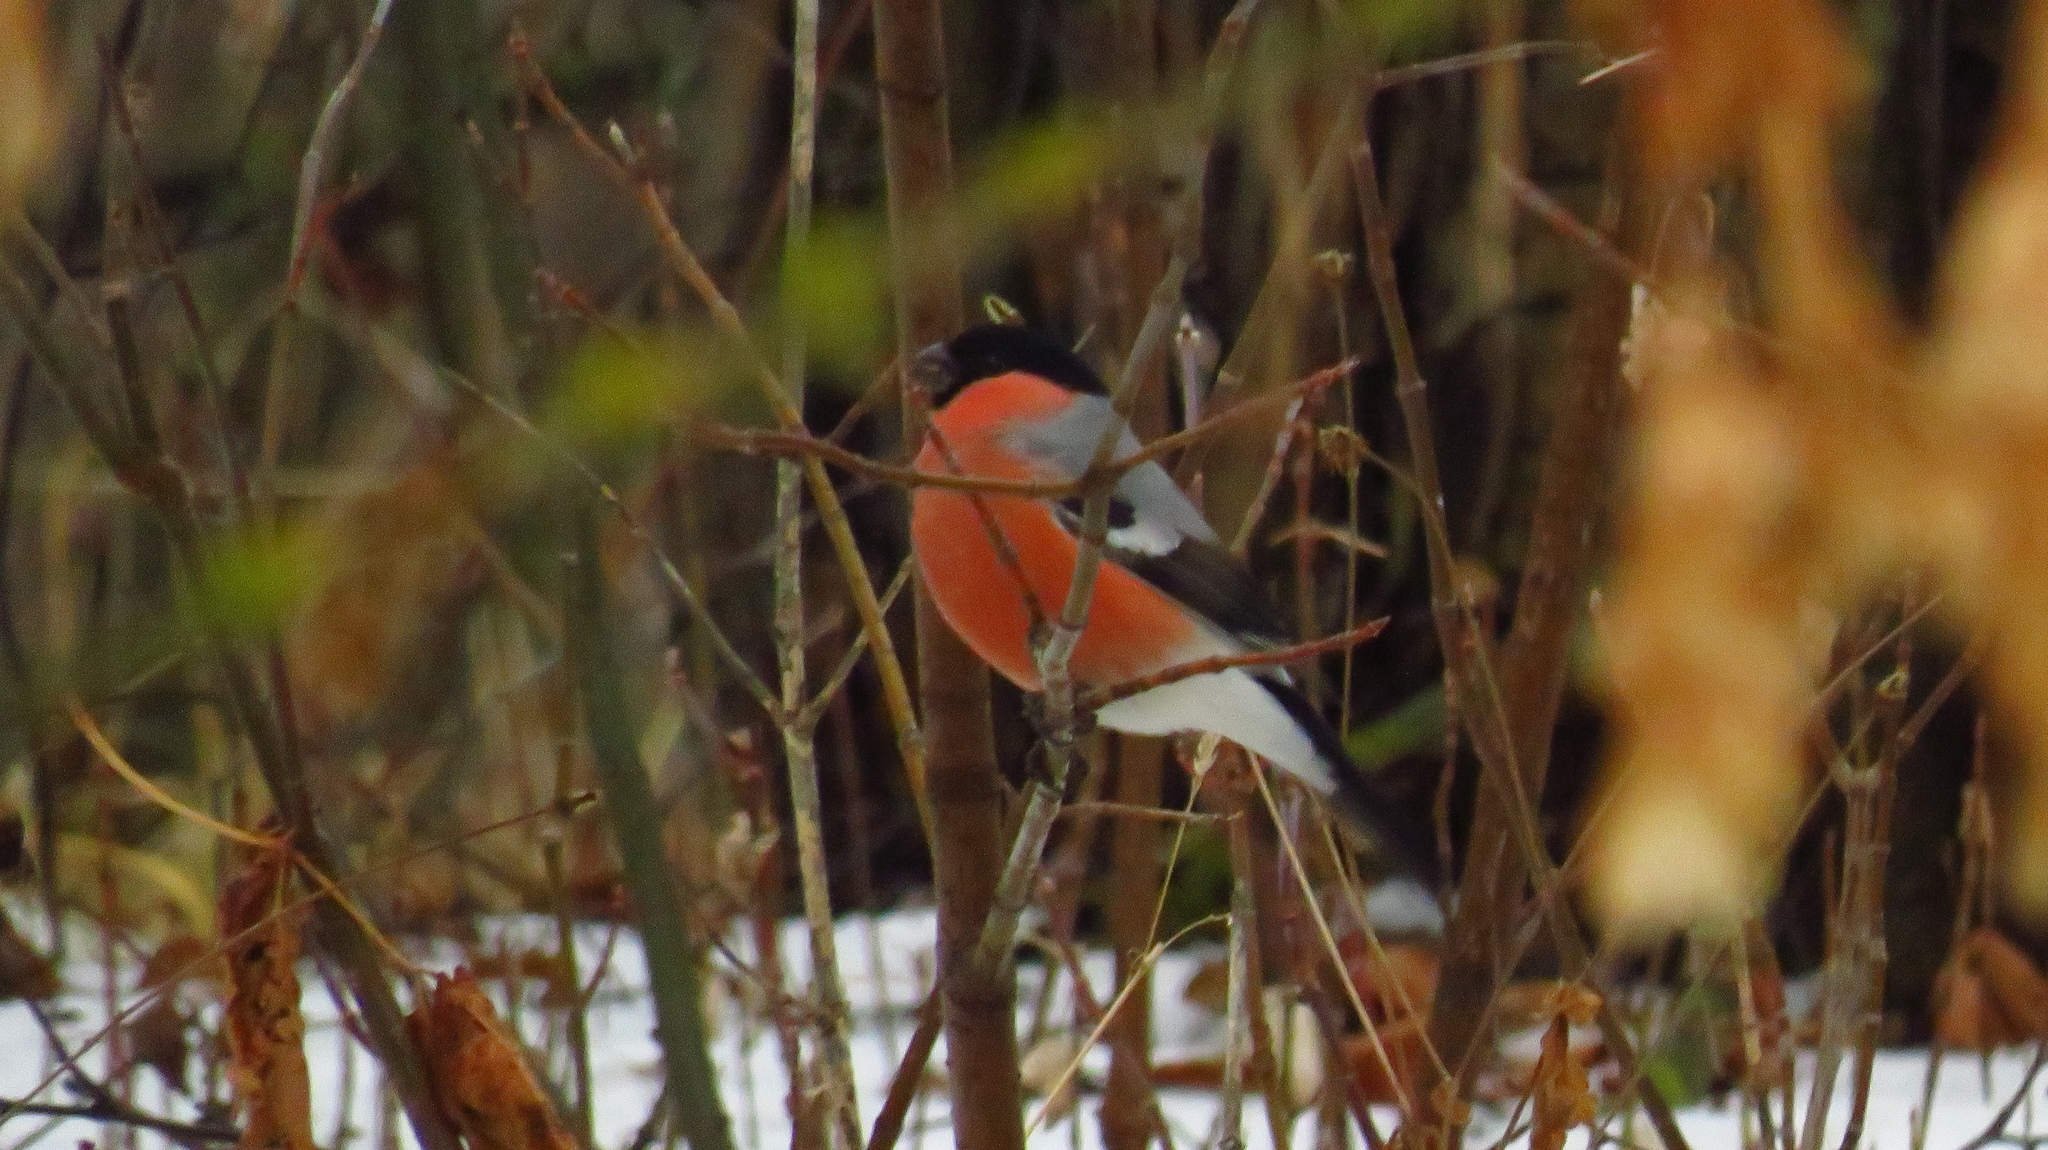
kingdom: Animalia
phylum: Chordata
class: Aves
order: Passeriformes
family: Fringillidae
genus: Pyrrhula
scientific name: Pyrrhula pyrrhula
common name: Eurasian bullfinch
